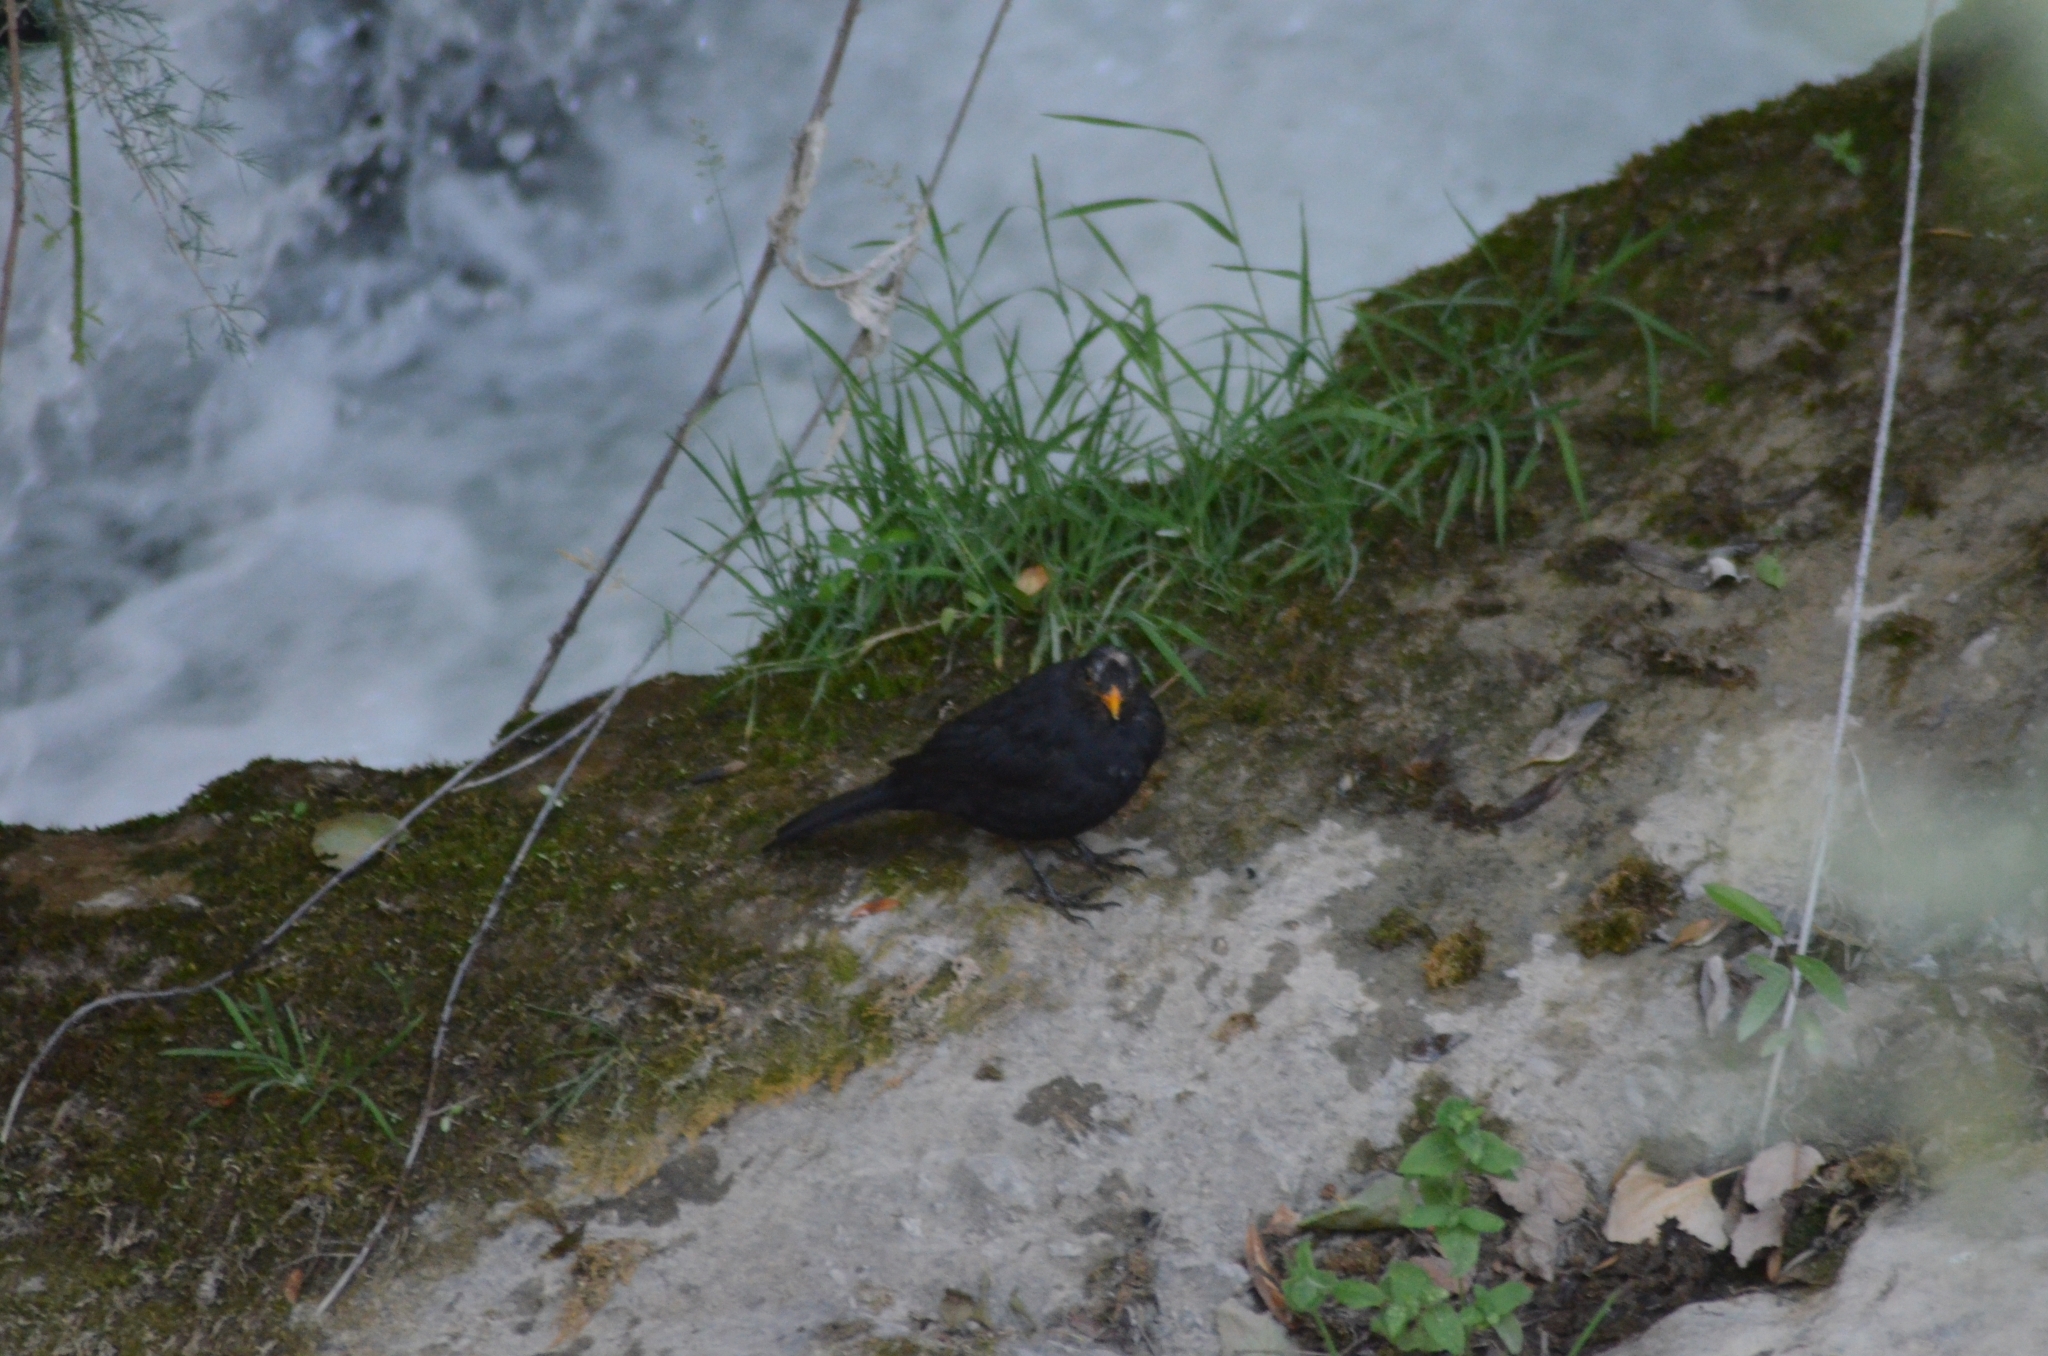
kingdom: Animalia
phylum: Chordata
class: Aves
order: Passeriformes
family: Turdidae
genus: Turdus
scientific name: Turdus merula
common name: Common blackbird
